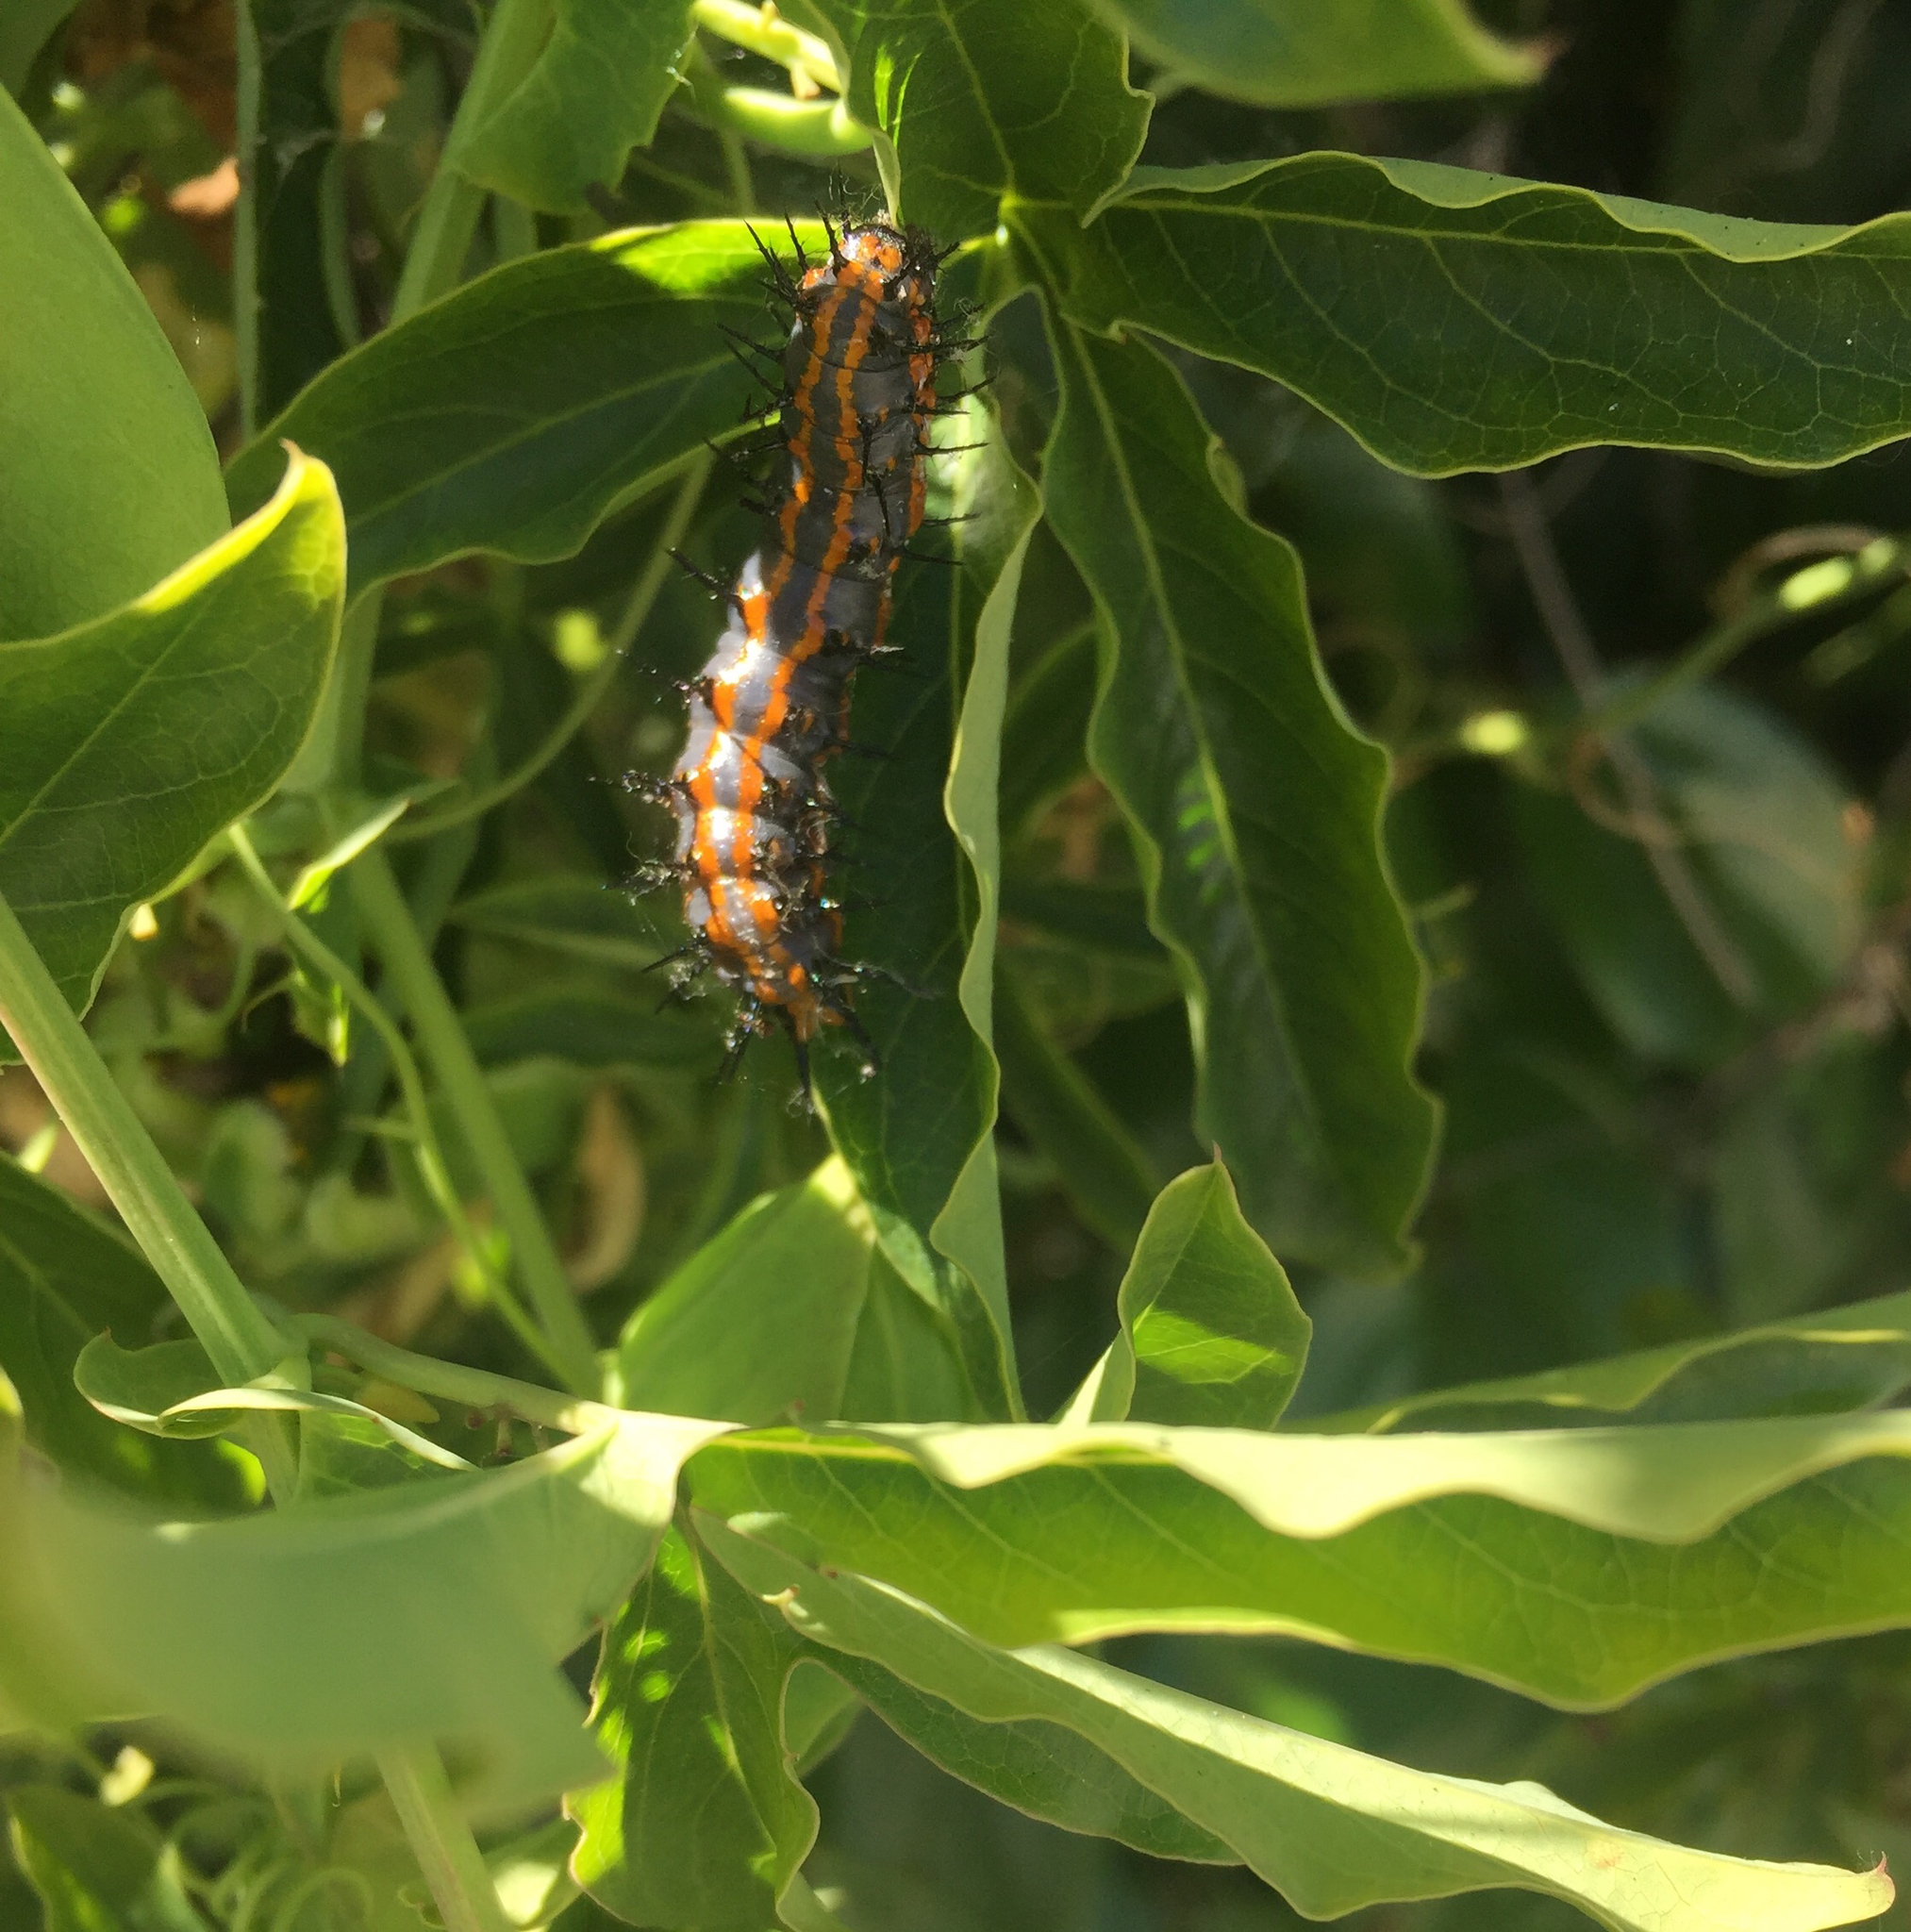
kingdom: Animalia
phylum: Arthropoda
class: Insecta
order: Lepidoptera
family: Nymphalidae
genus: Dione
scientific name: Dione vanillae
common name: Gulf fritillary
